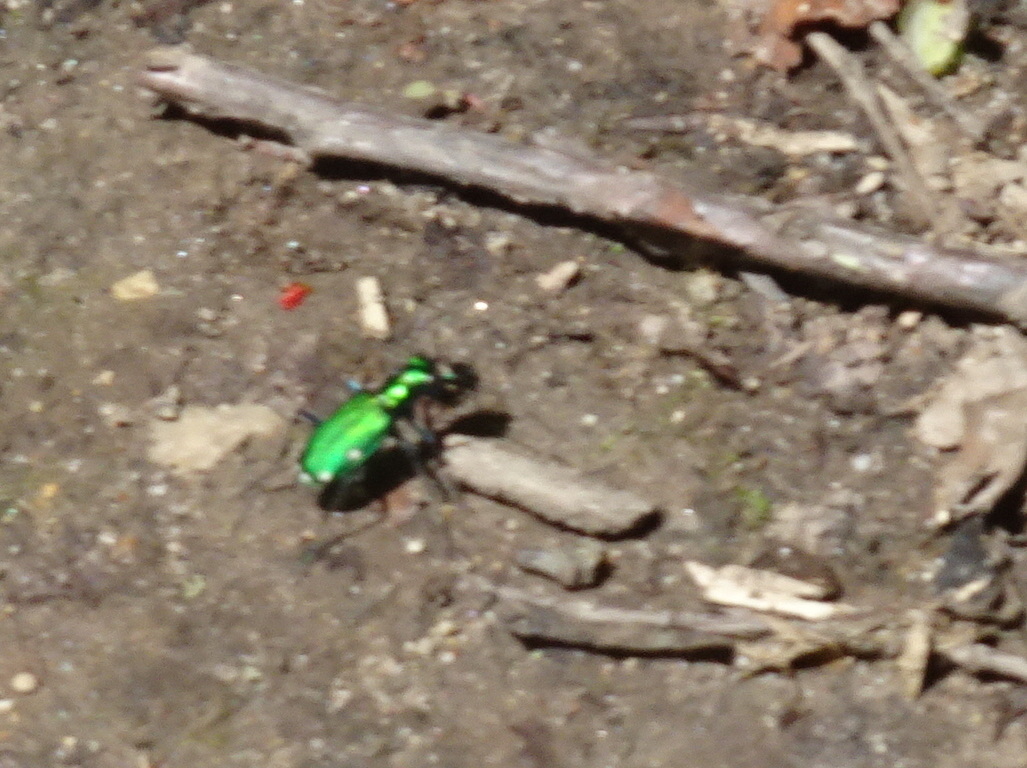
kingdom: Animalia
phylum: Arthropoda
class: Insecta
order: Coleoptera
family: Carabidae
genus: Cicindela
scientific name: Cicindela sexguttata
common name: Six-spotted tiger beetle
